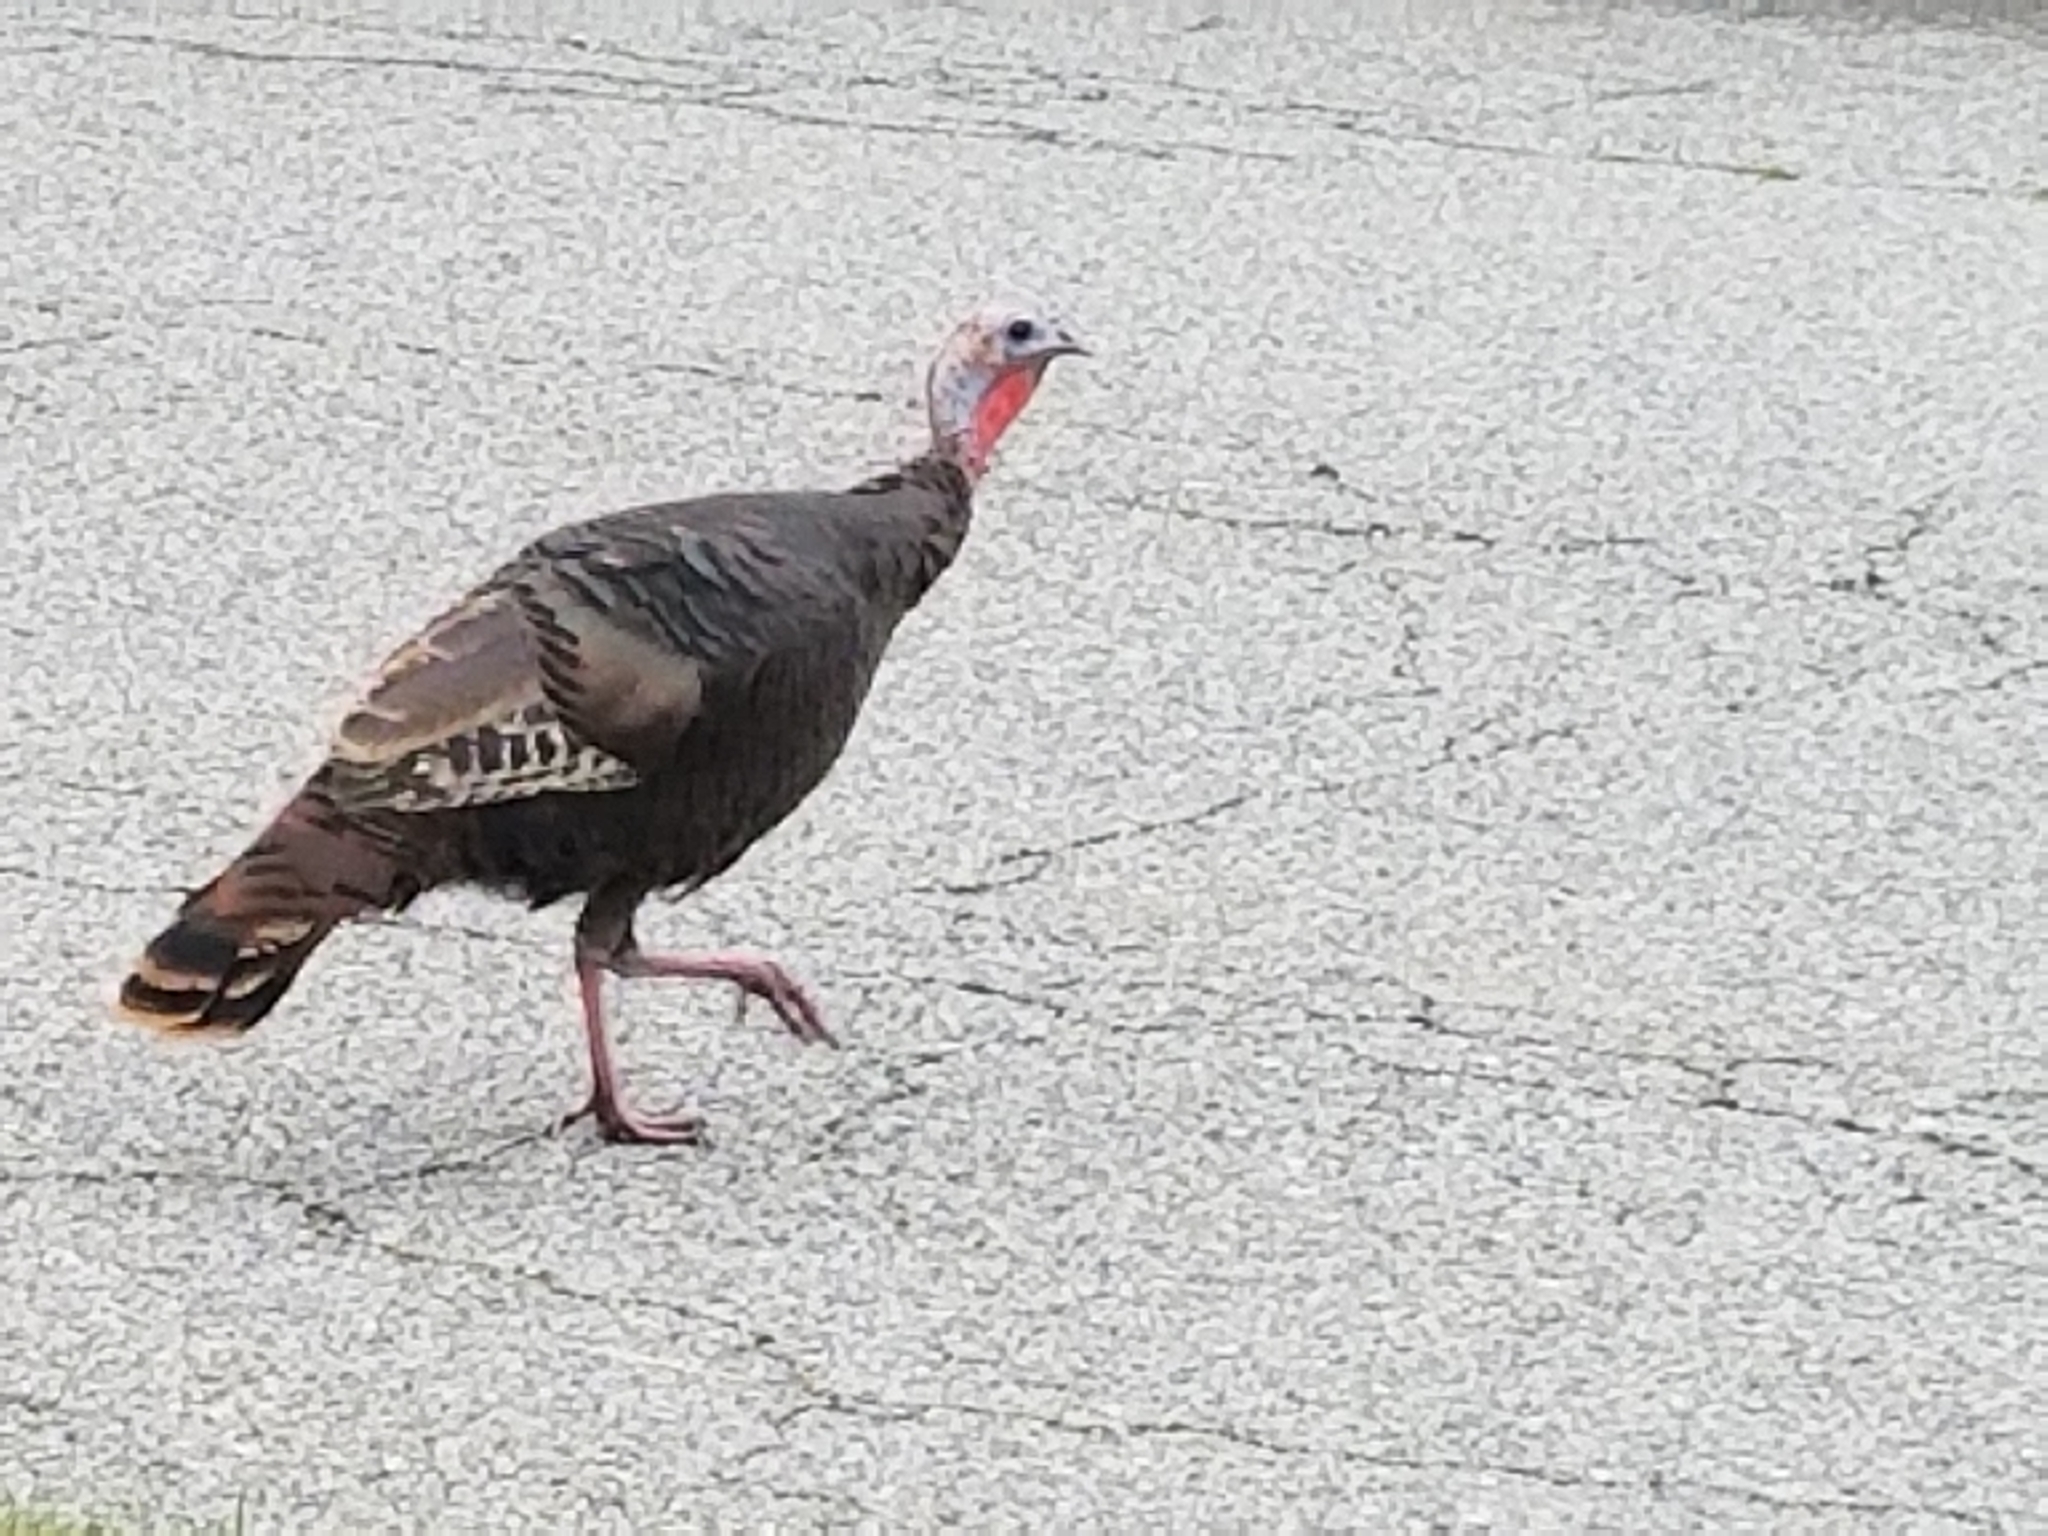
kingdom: Animalia
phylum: Chordata
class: Aves
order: Galliformes
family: Phasianidae
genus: Meleagris
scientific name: Meleagris gallopavo
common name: Wild turkey
